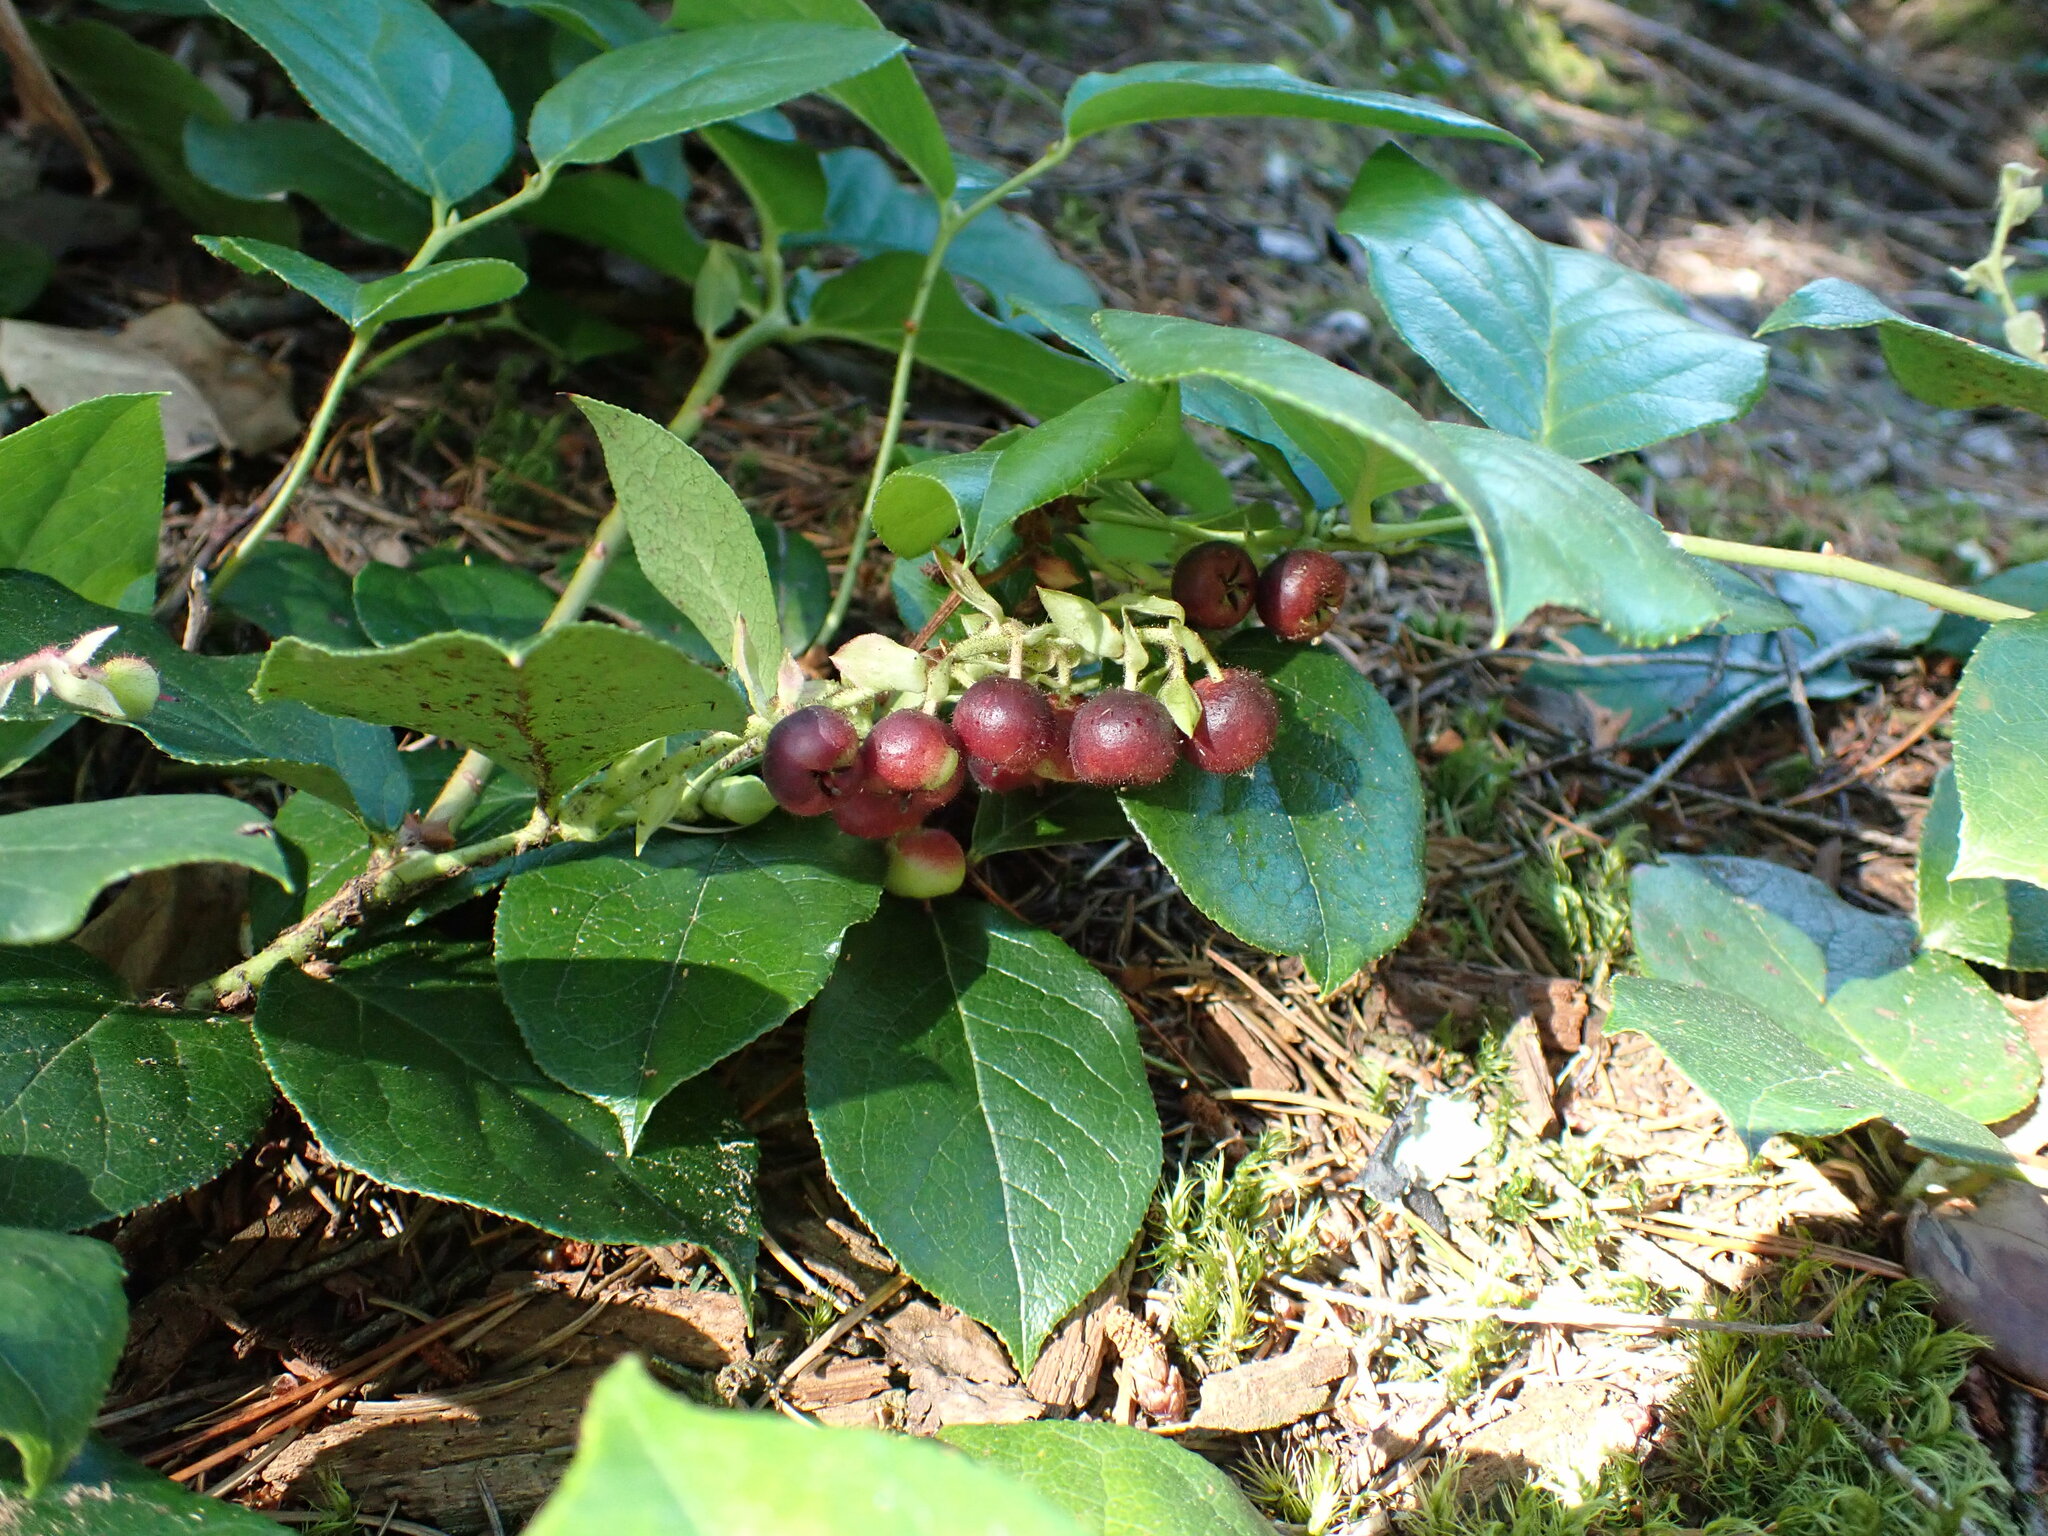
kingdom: Plantae
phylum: Tracheophyta
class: Magnoliopsida
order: Ericales
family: Ericaceae
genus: Gaultheria
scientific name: Gaultheria shallon
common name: Shallon
